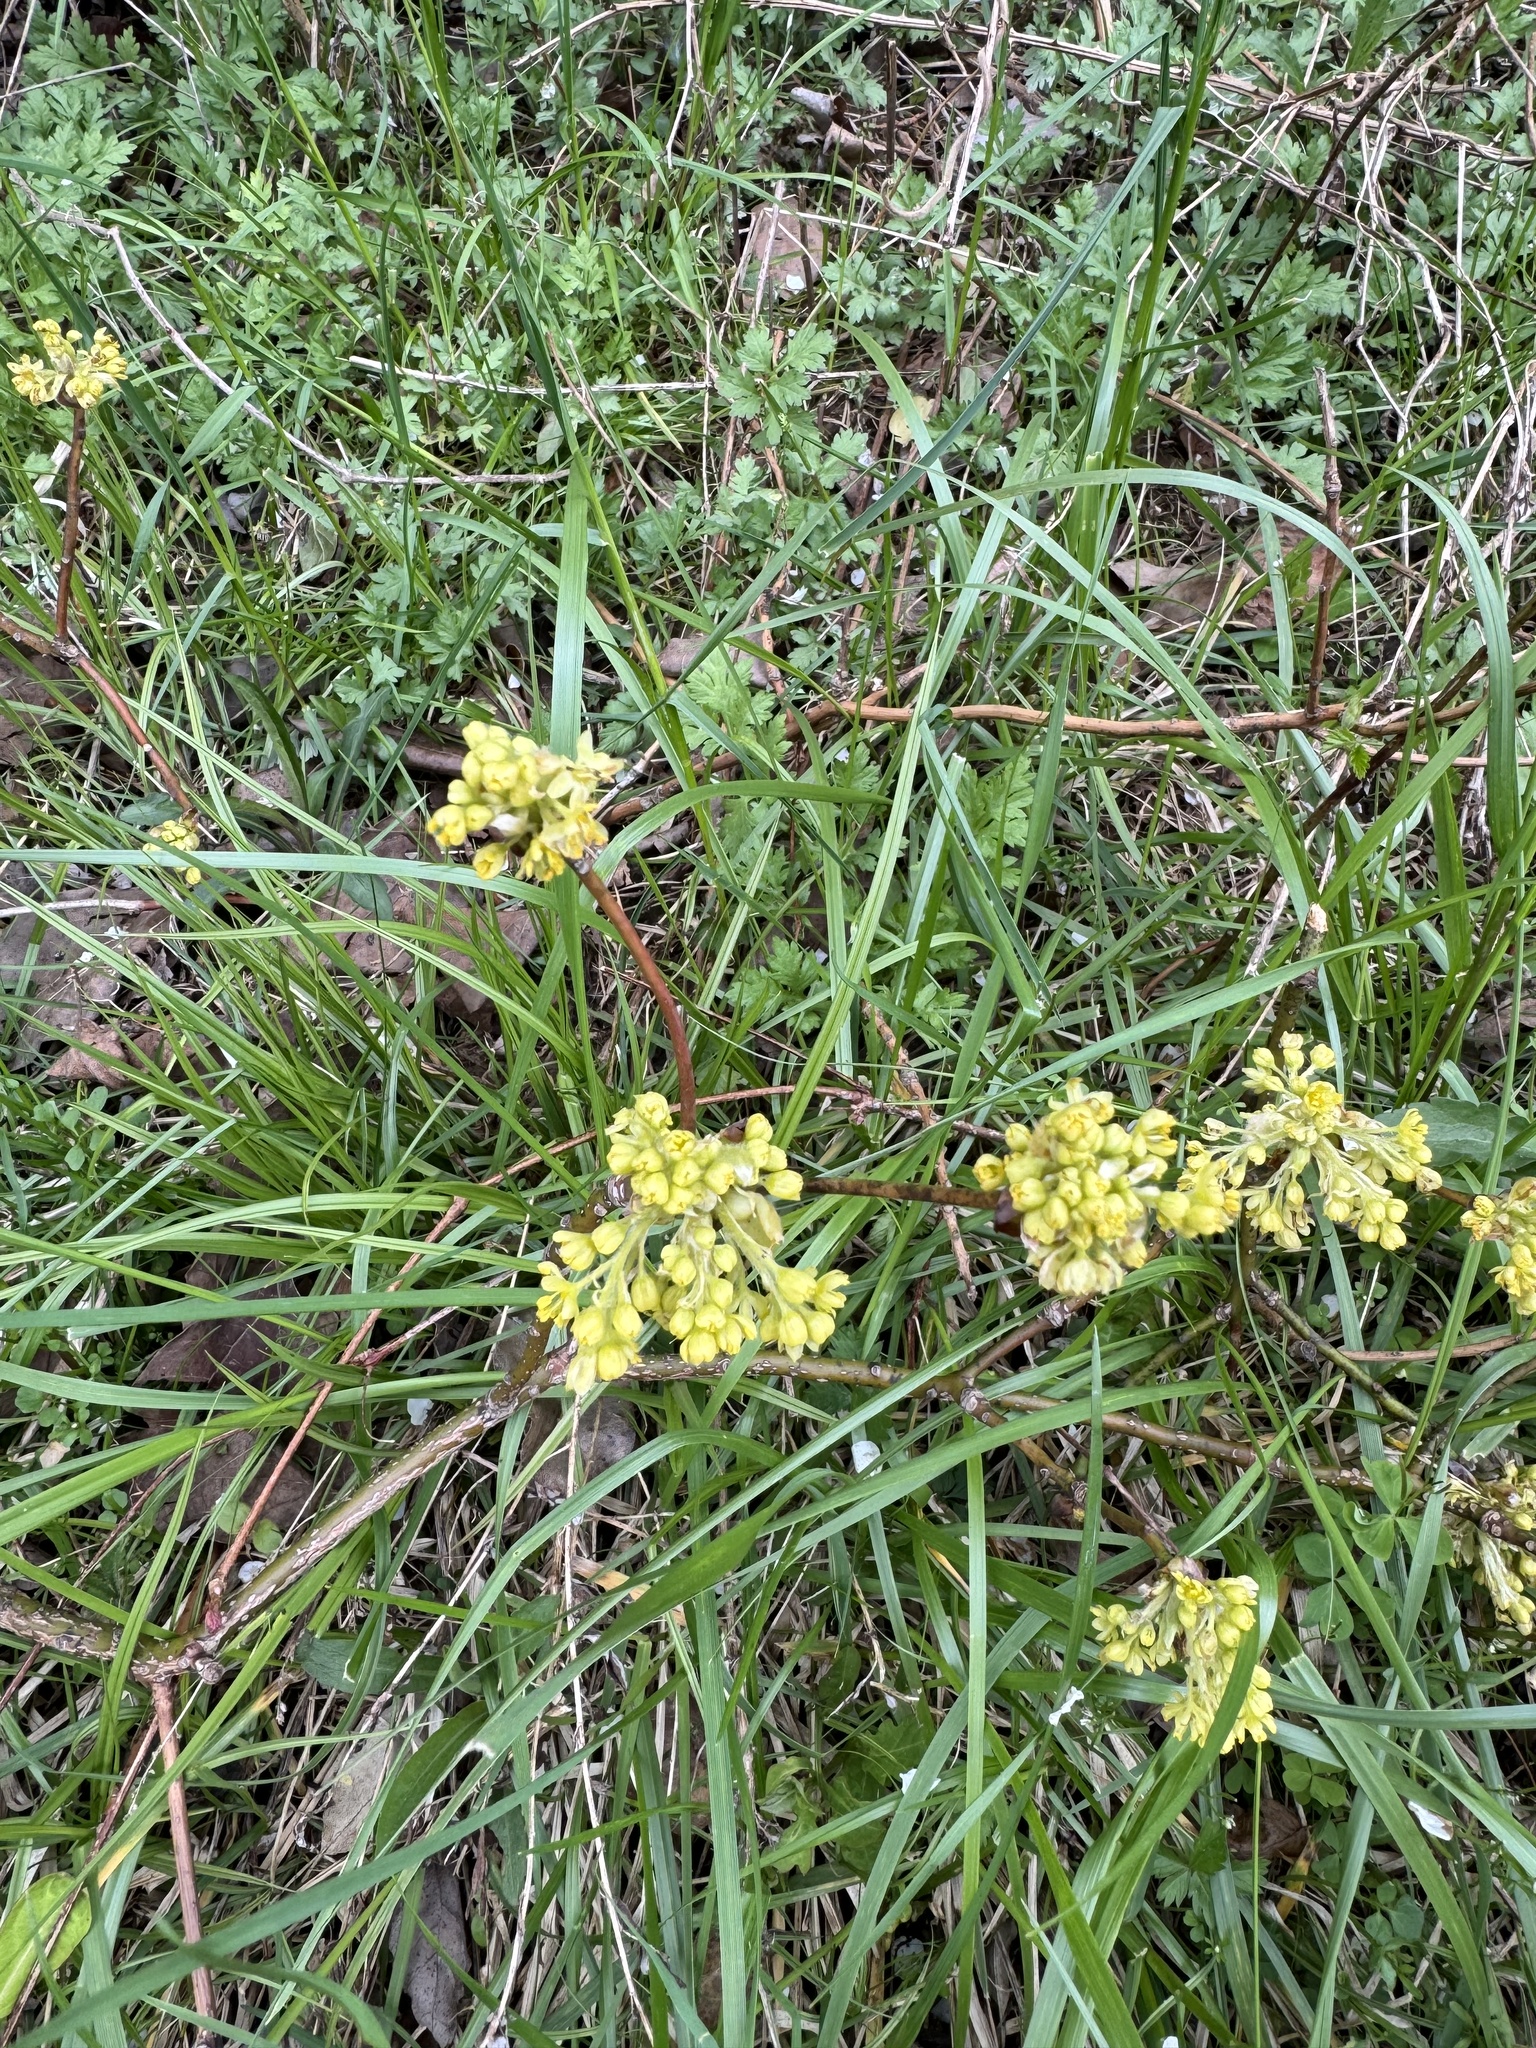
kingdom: Plantae
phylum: Tracheophyta
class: Magnoliopsida
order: Laurales
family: Lauraceae
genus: Sassafras
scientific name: Sassafras albidum
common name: Sassafras
